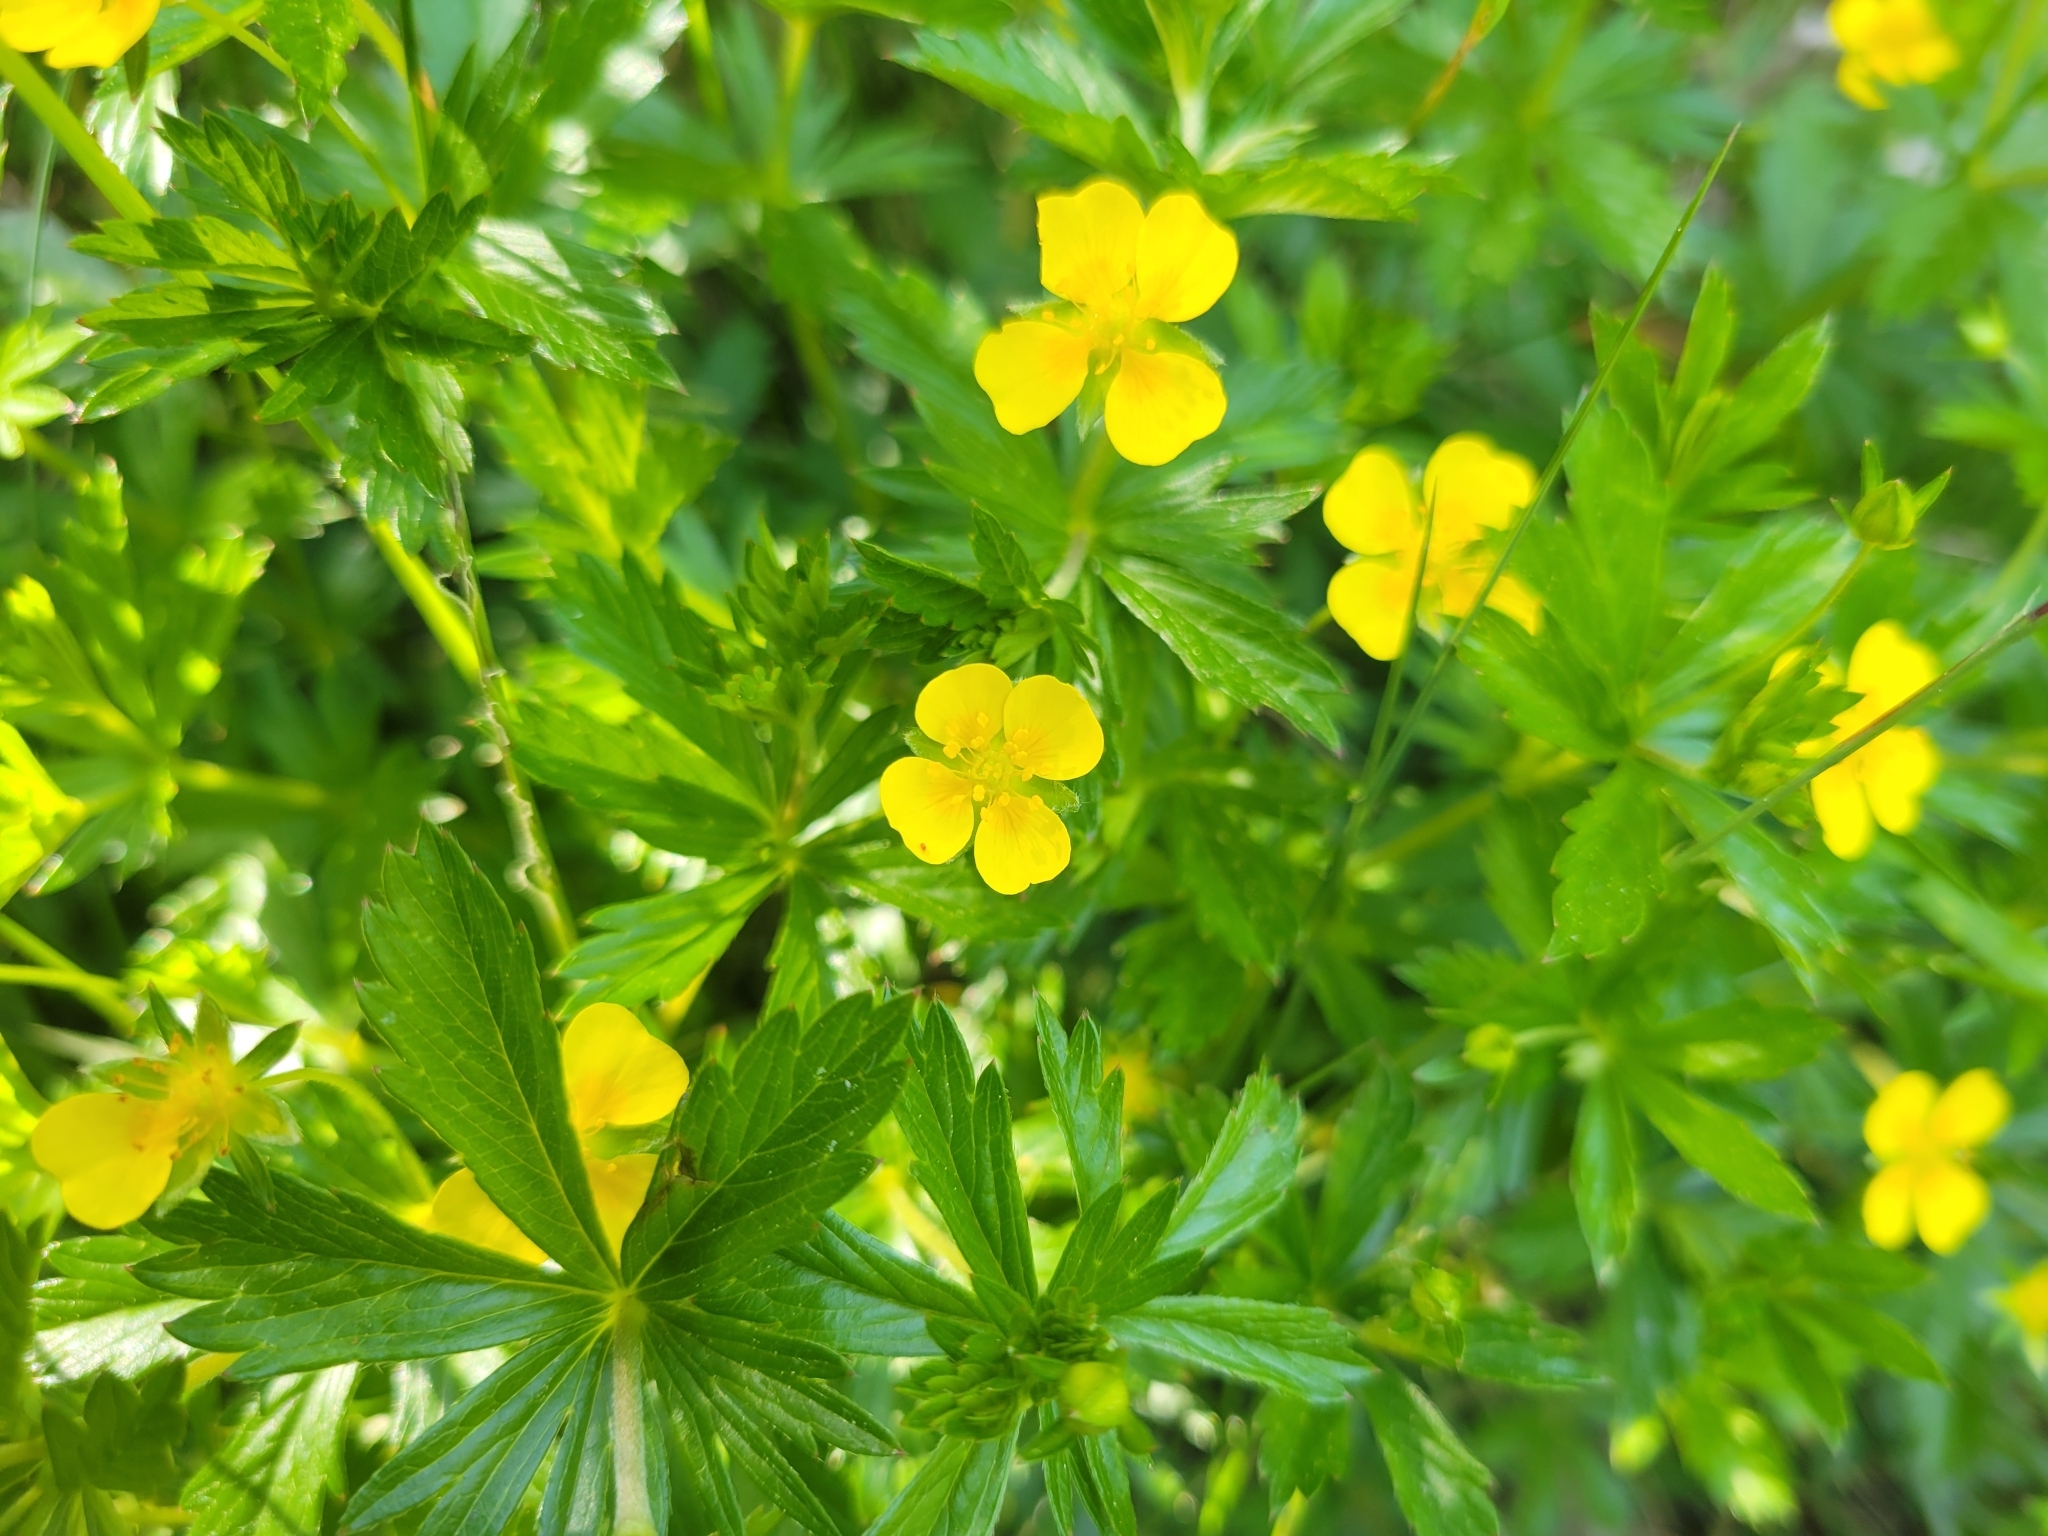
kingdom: Plantae
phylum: Tracheophyta
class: Magnoliopsida
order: Rosales
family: Rosaceae
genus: Potentilla
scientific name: Potentilla erecta
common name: Tormentil
